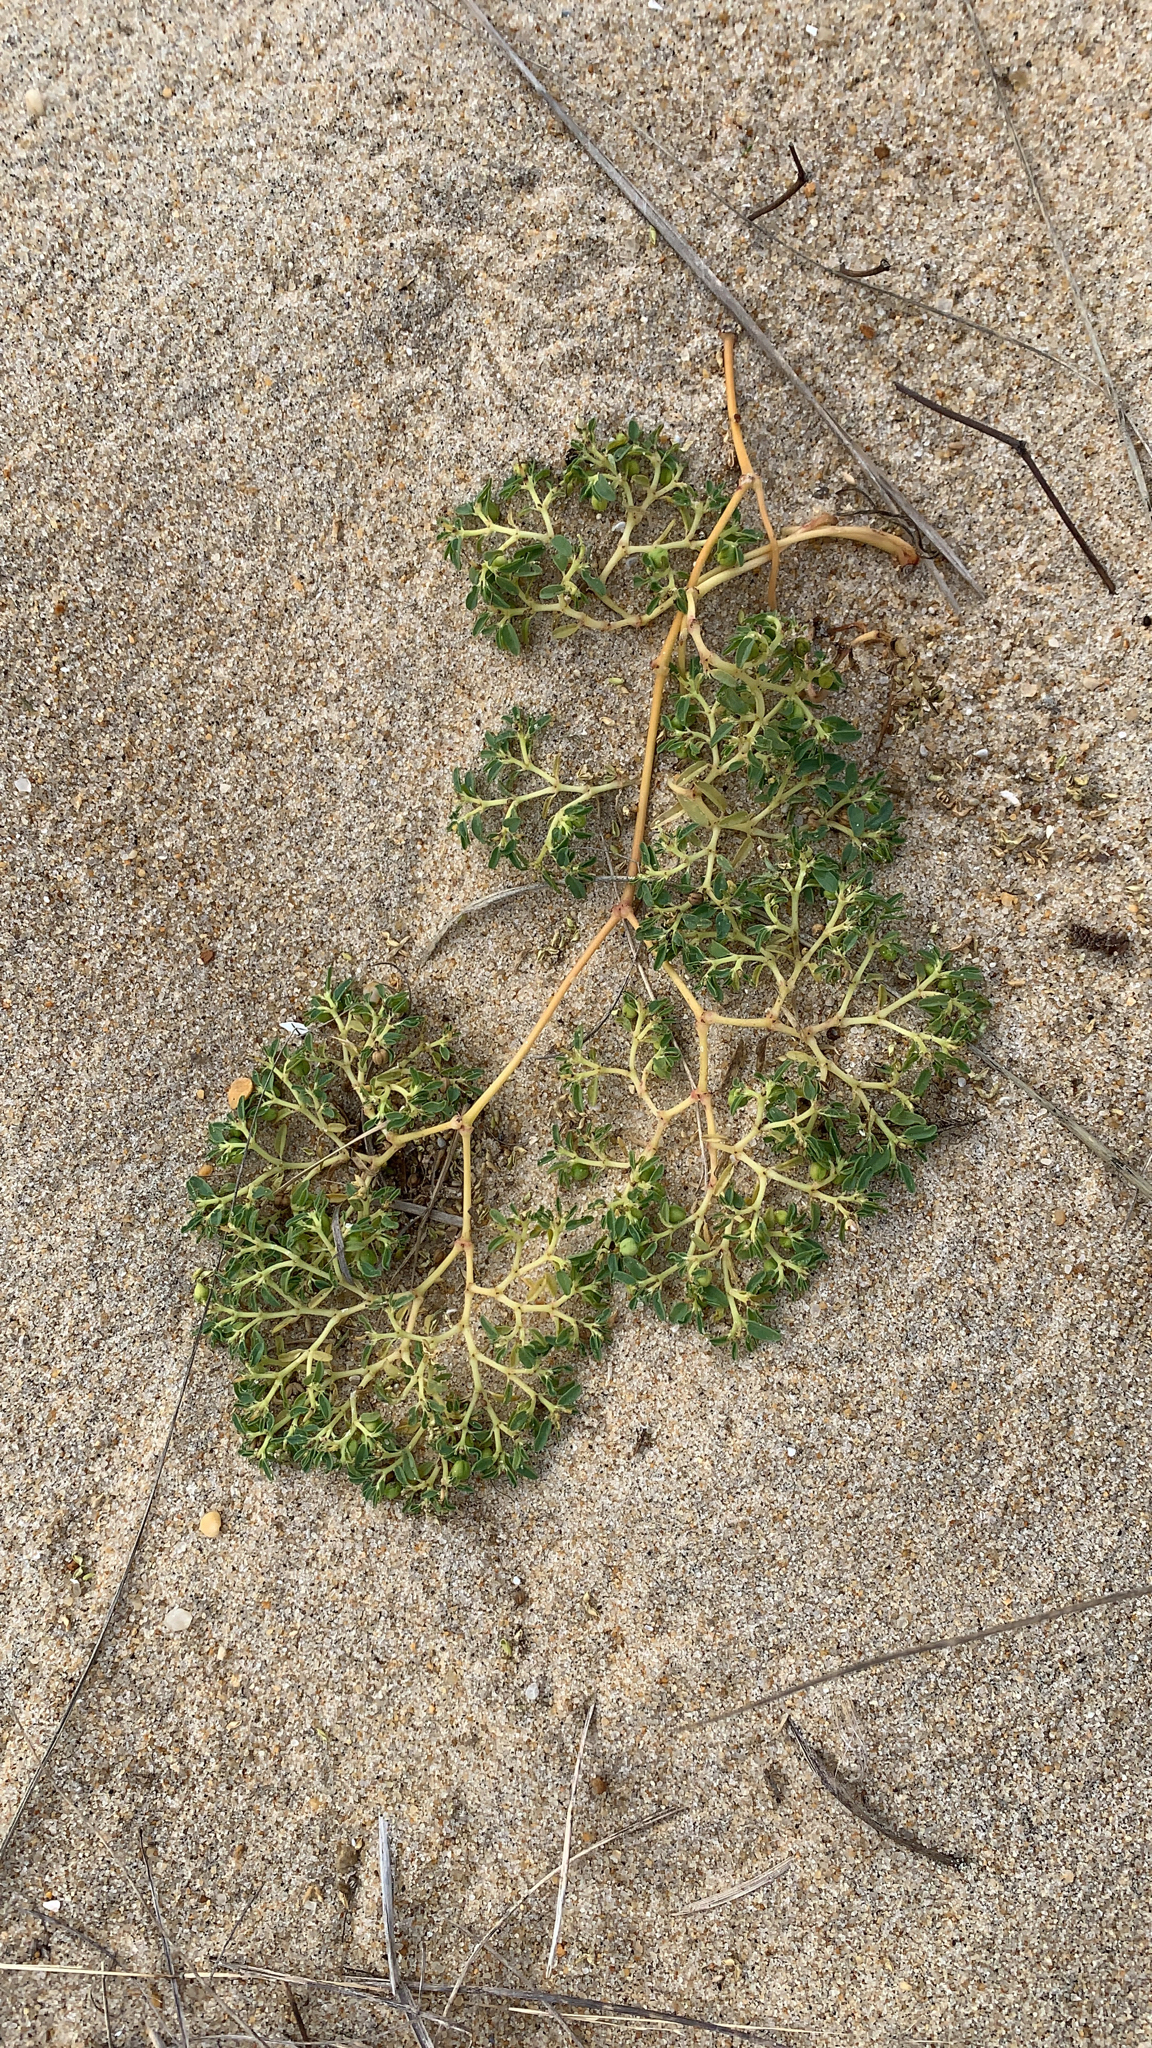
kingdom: Plantae
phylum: Tracheophyta
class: Magnoliopsida
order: Malpighiales
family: Euphorbiaceae
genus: Euphorbia
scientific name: Euphorbia polygonifolia
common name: Knotweed spurge
